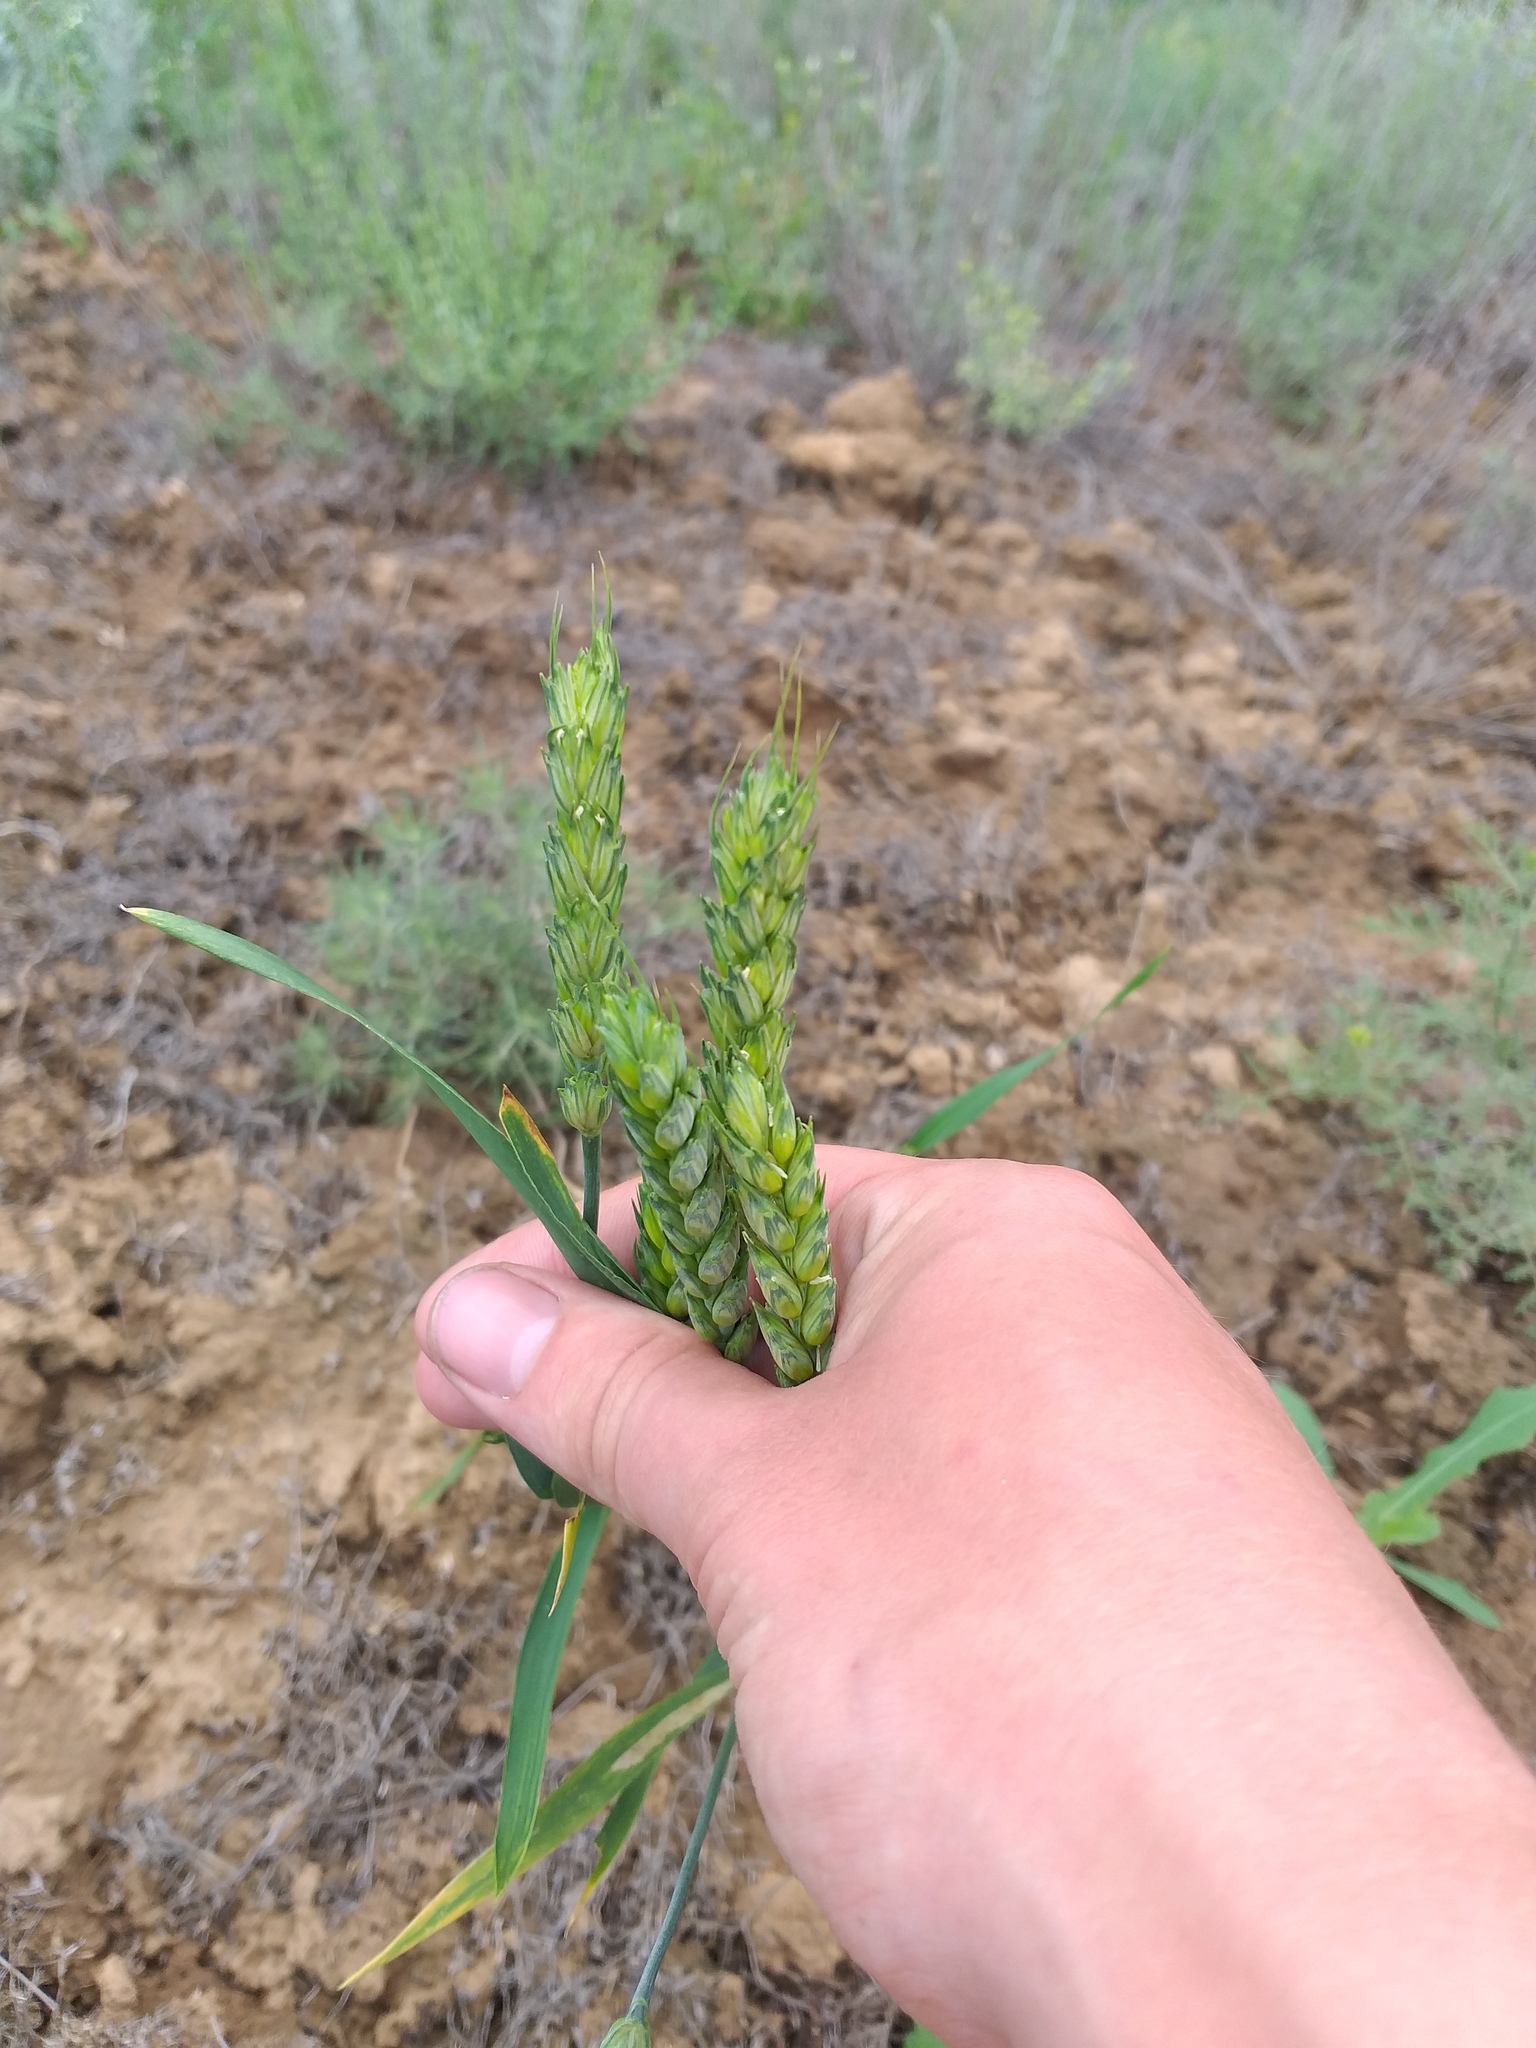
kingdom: Plantae
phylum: Tracheophyta
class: Liliopsida
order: Poales
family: Poaceae
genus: Triticum
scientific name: Triticum aestivum
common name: Common wheat
